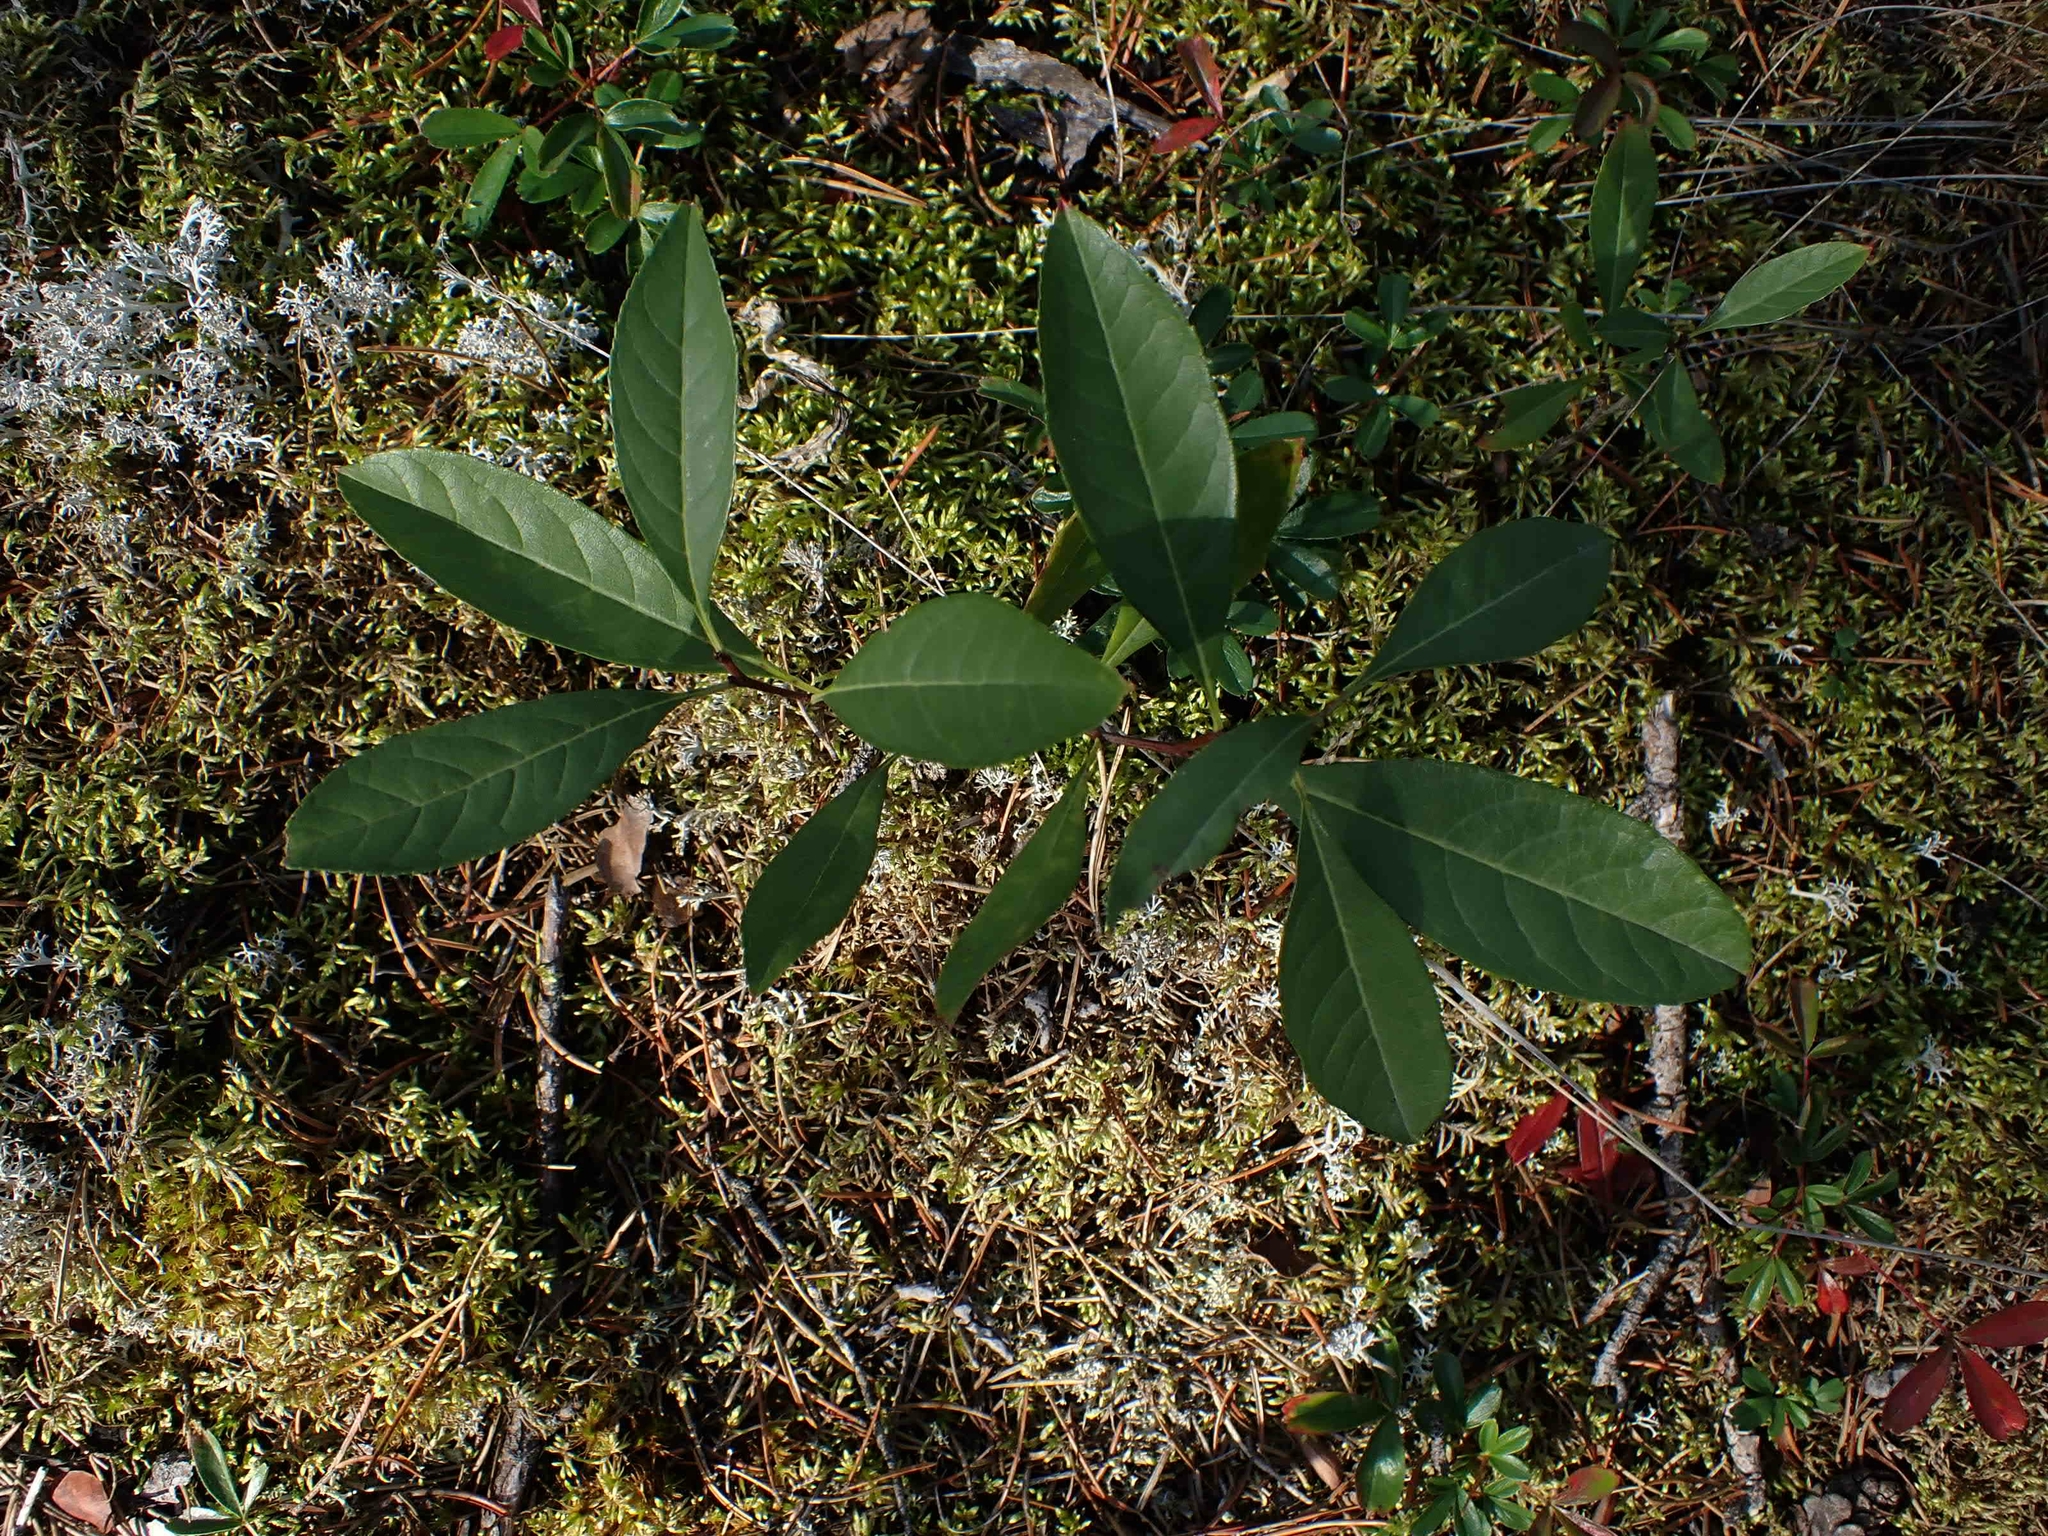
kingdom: Plantae
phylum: Tracheophyta
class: Magnoliopsida
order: Rosales
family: Rosaceae
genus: Prunus
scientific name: Prunus pumila
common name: Dwarf cherry
